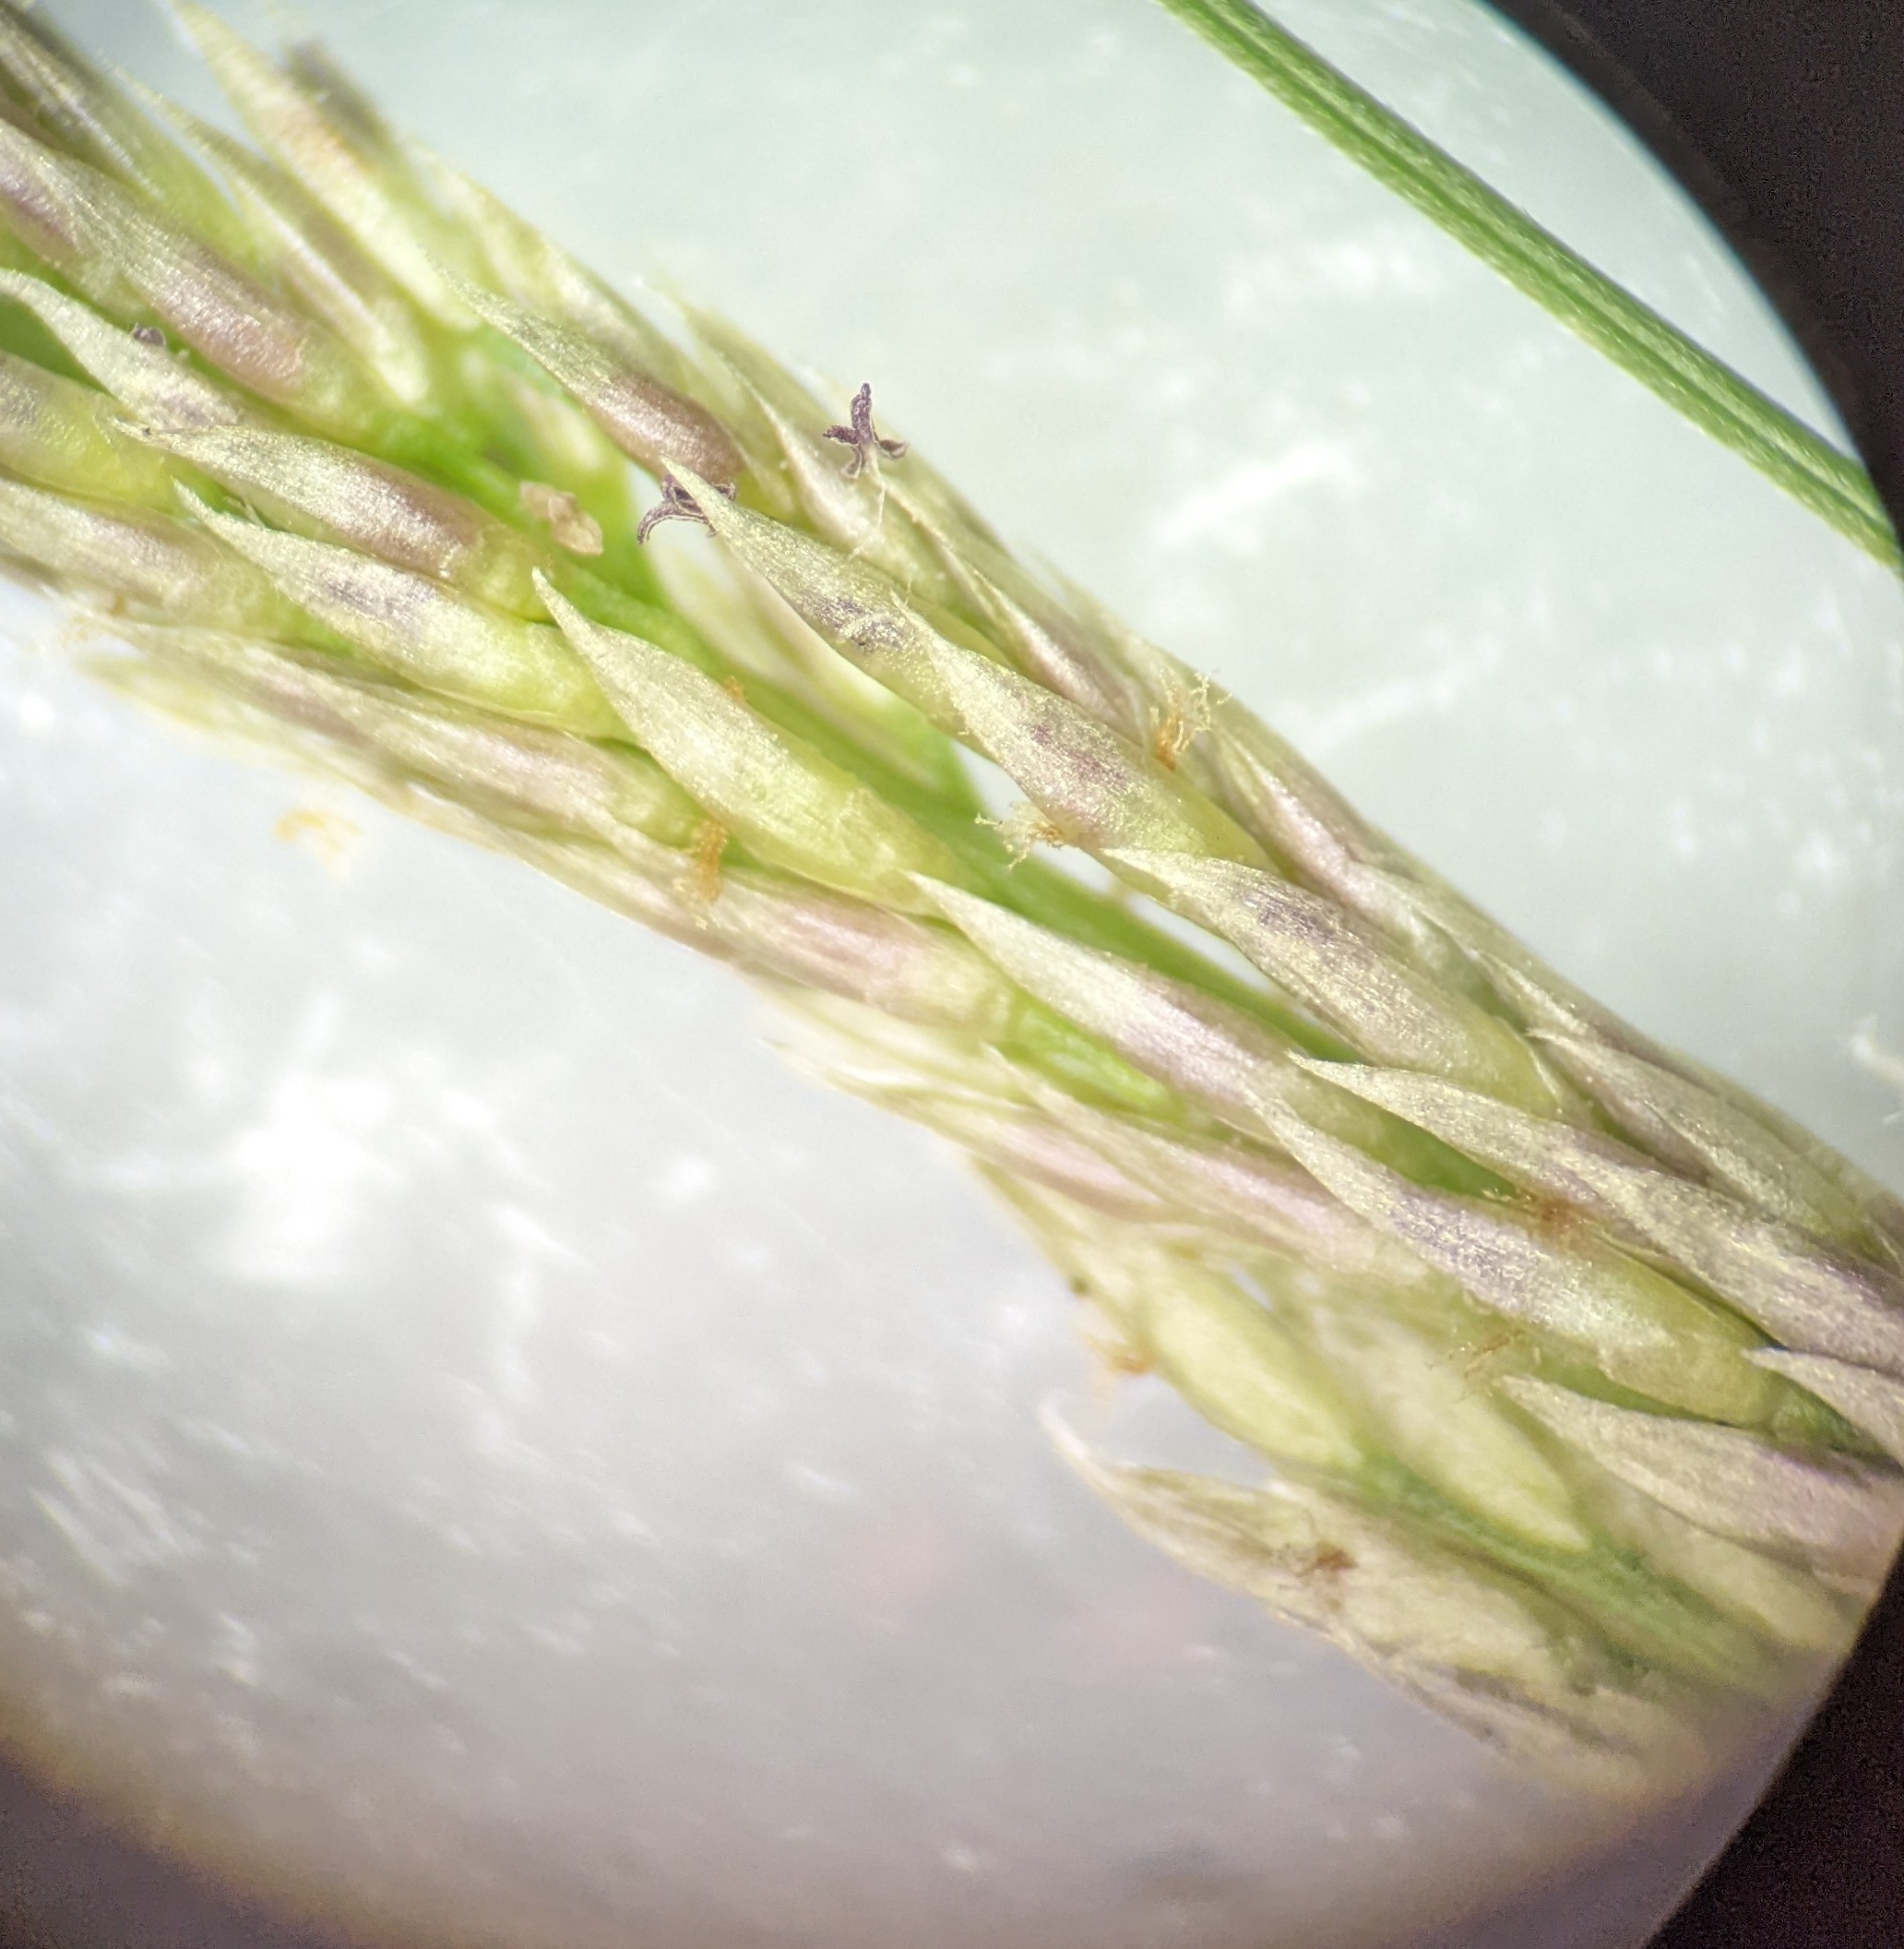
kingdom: Plantae
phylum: Tracheophyta
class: Liliopsida
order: Poales
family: Poaceae
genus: Sporobolus
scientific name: Sporobolus indicus
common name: Smut grass
